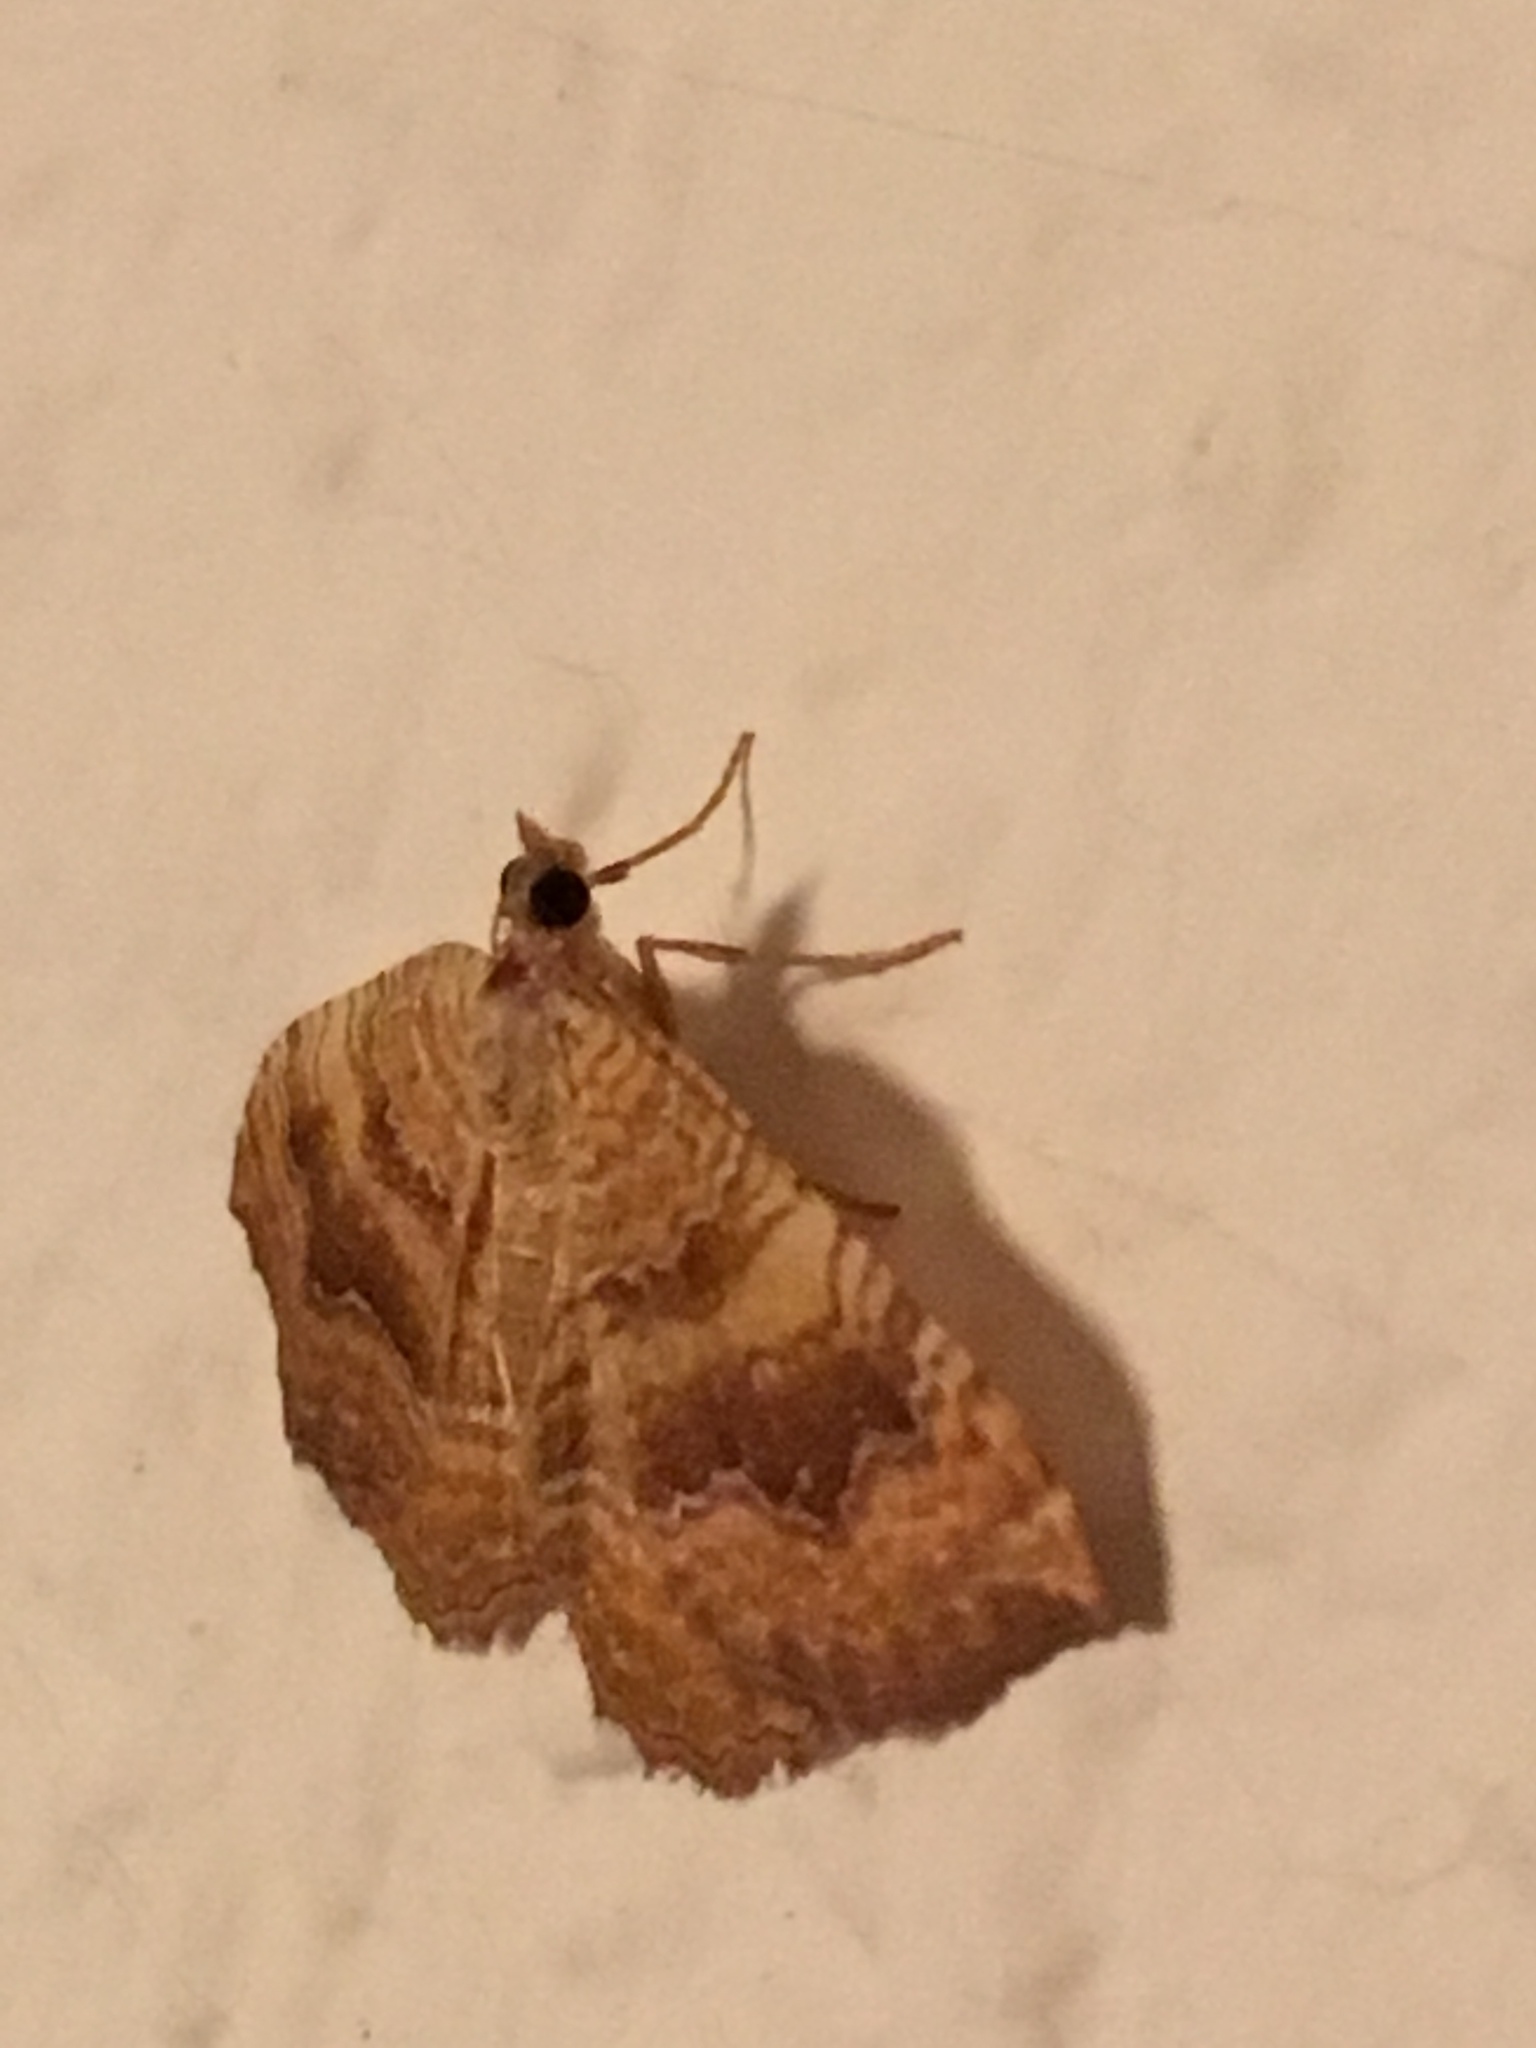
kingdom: Animalia
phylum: Arthropoda
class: Insecta
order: Lepidoptera
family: Geometridae
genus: Camptogramma
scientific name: Camptogramma bilineata
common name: Yellow shell
